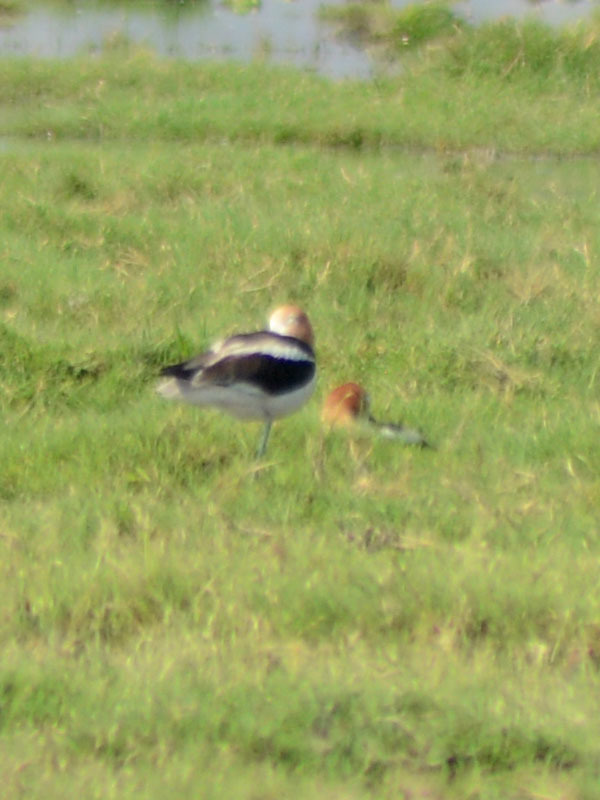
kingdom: Animalia
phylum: Chordata
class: Aves
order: Charadriiformes
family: Recurvirostridae
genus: Recurvirostra
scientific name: Recurvirostra americana
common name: American avocet
